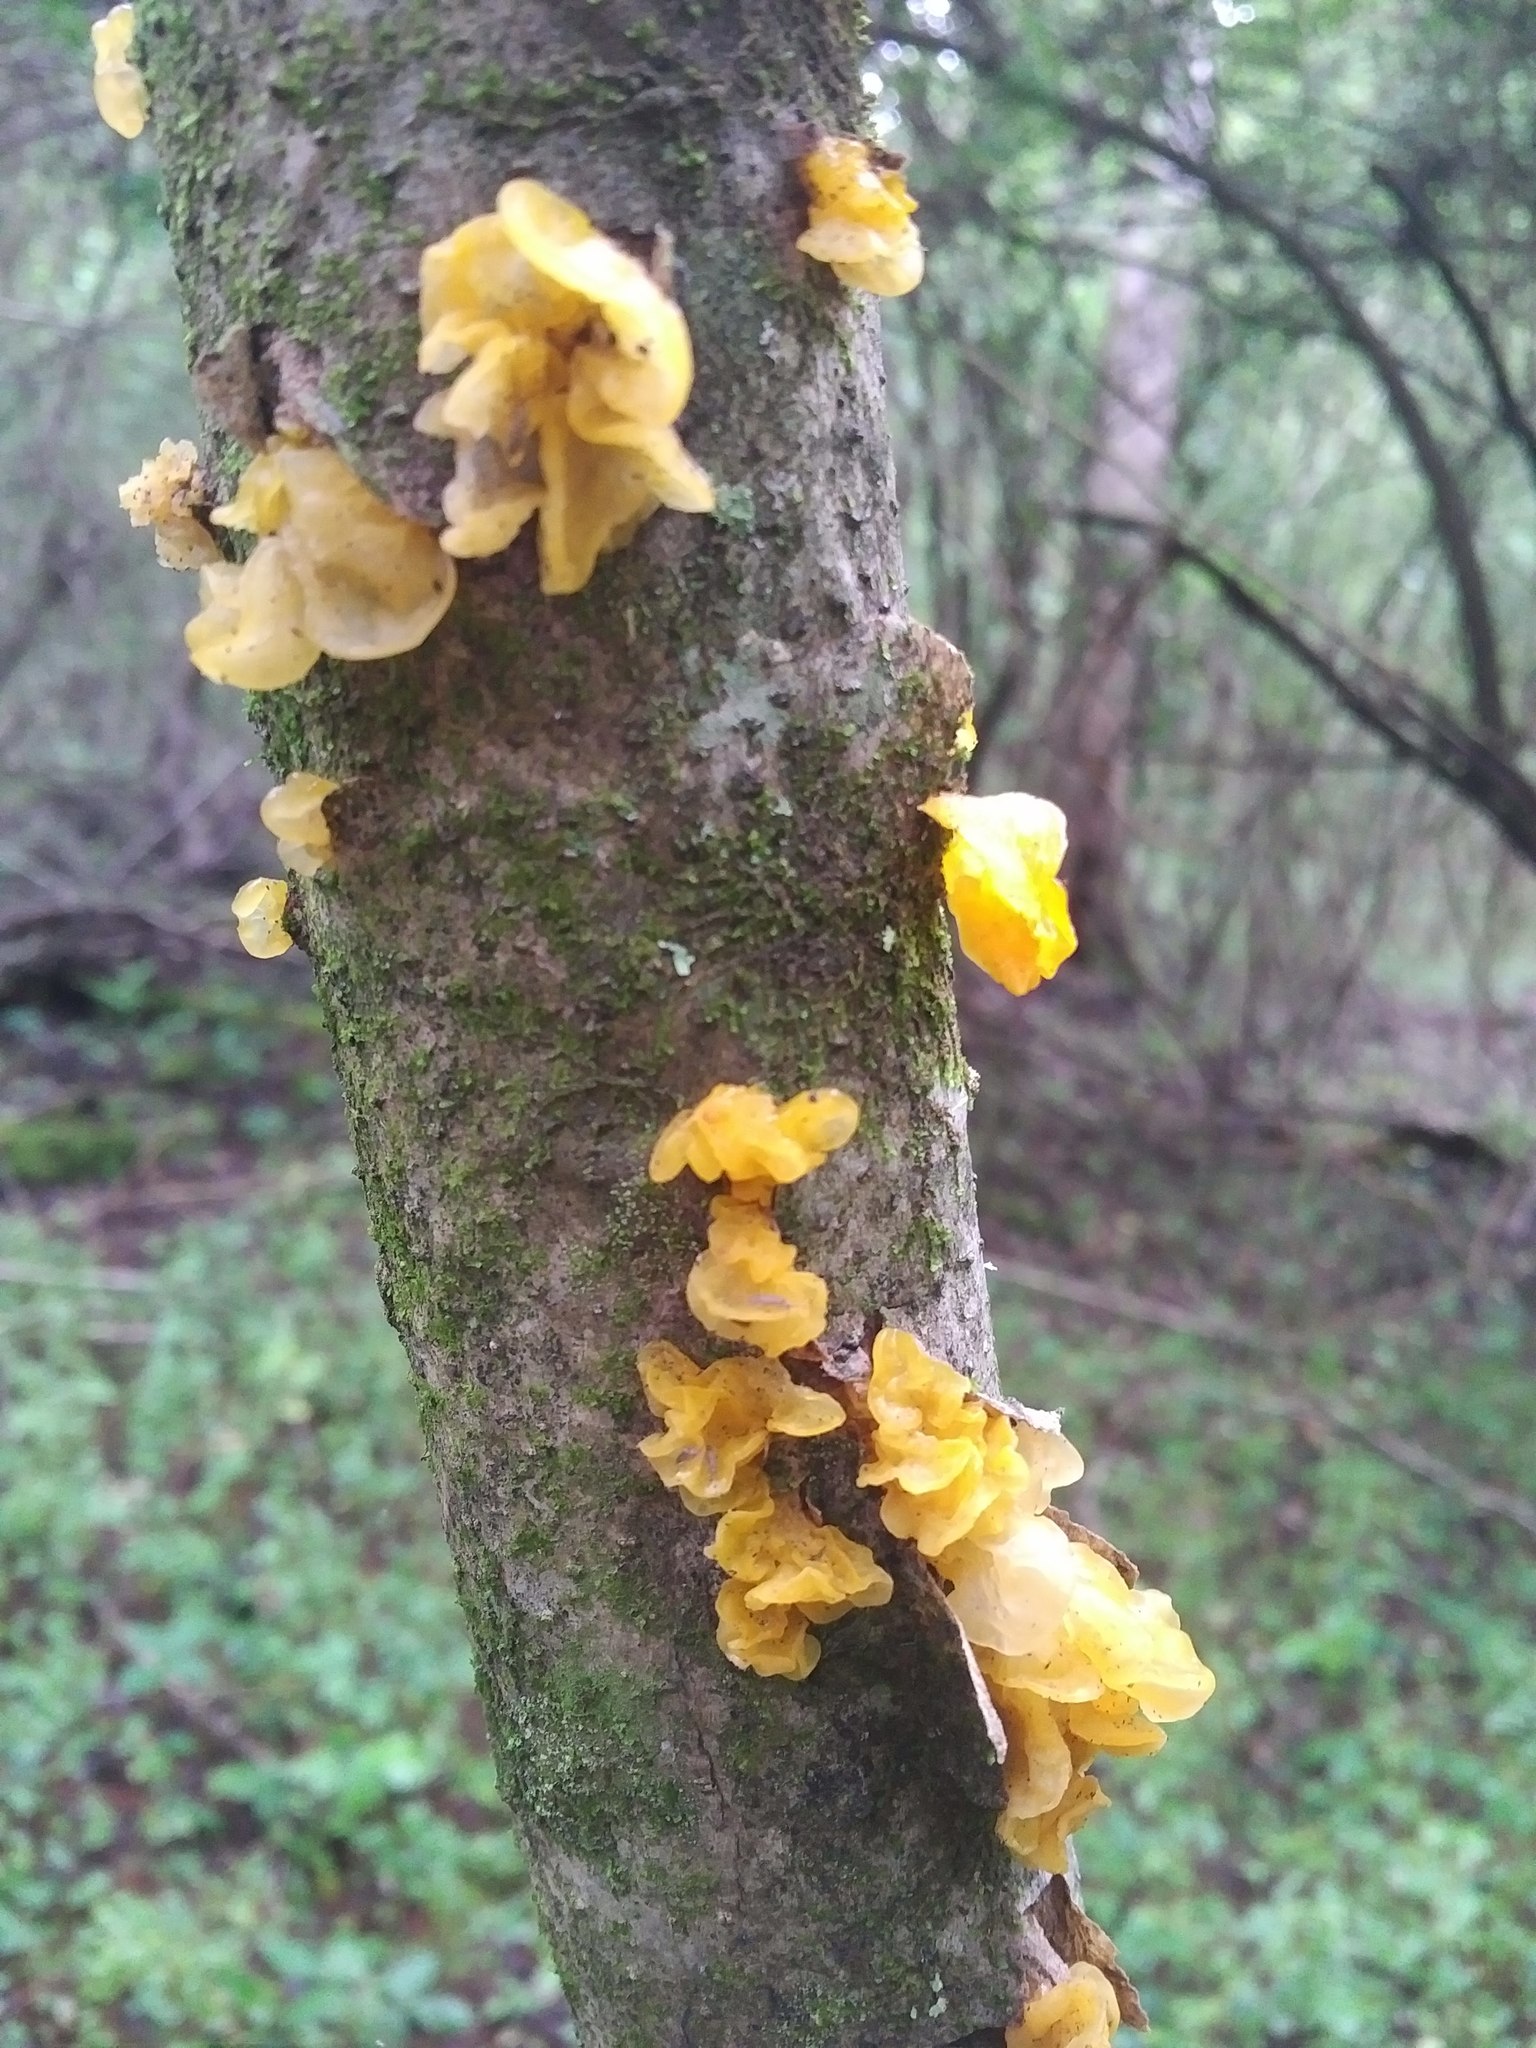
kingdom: Fungi
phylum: Basidiomycota
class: Tremellomycetes
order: Tremellales
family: Tremellaceae
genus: Tremella
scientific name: Tremella mesenterica
